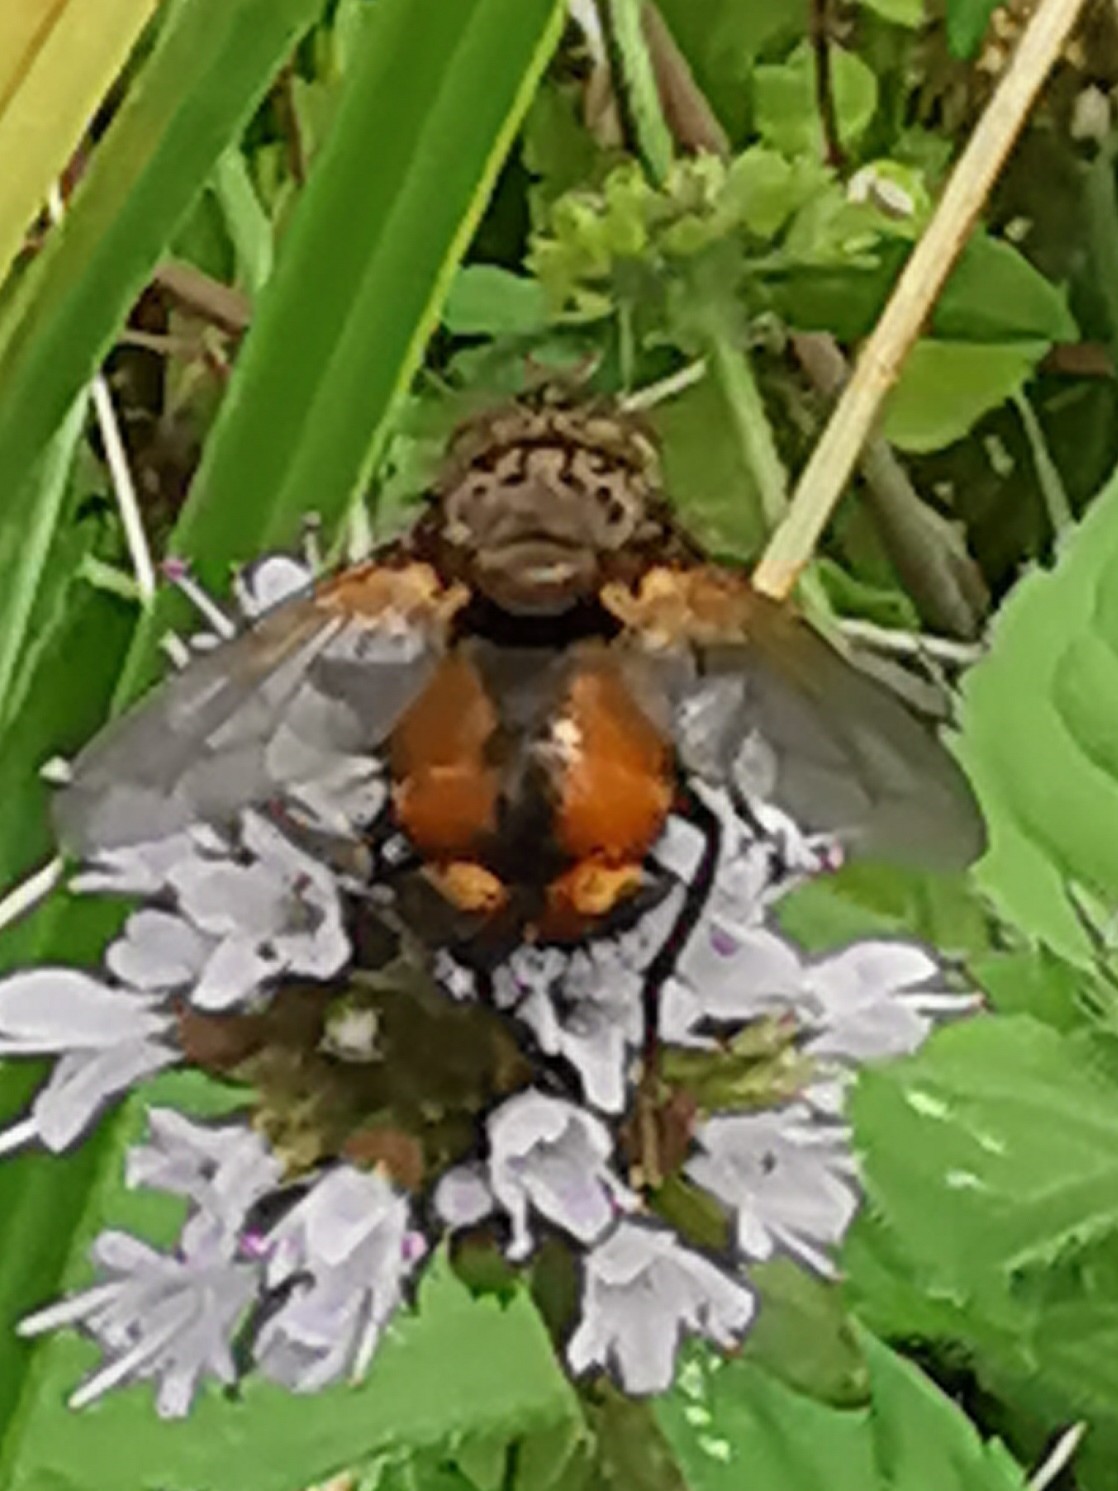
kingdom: Animalia
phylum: Arthropoda
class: Insecta
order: Diptera
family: Tachinidae
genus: Tachina
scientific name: Tachina fera
